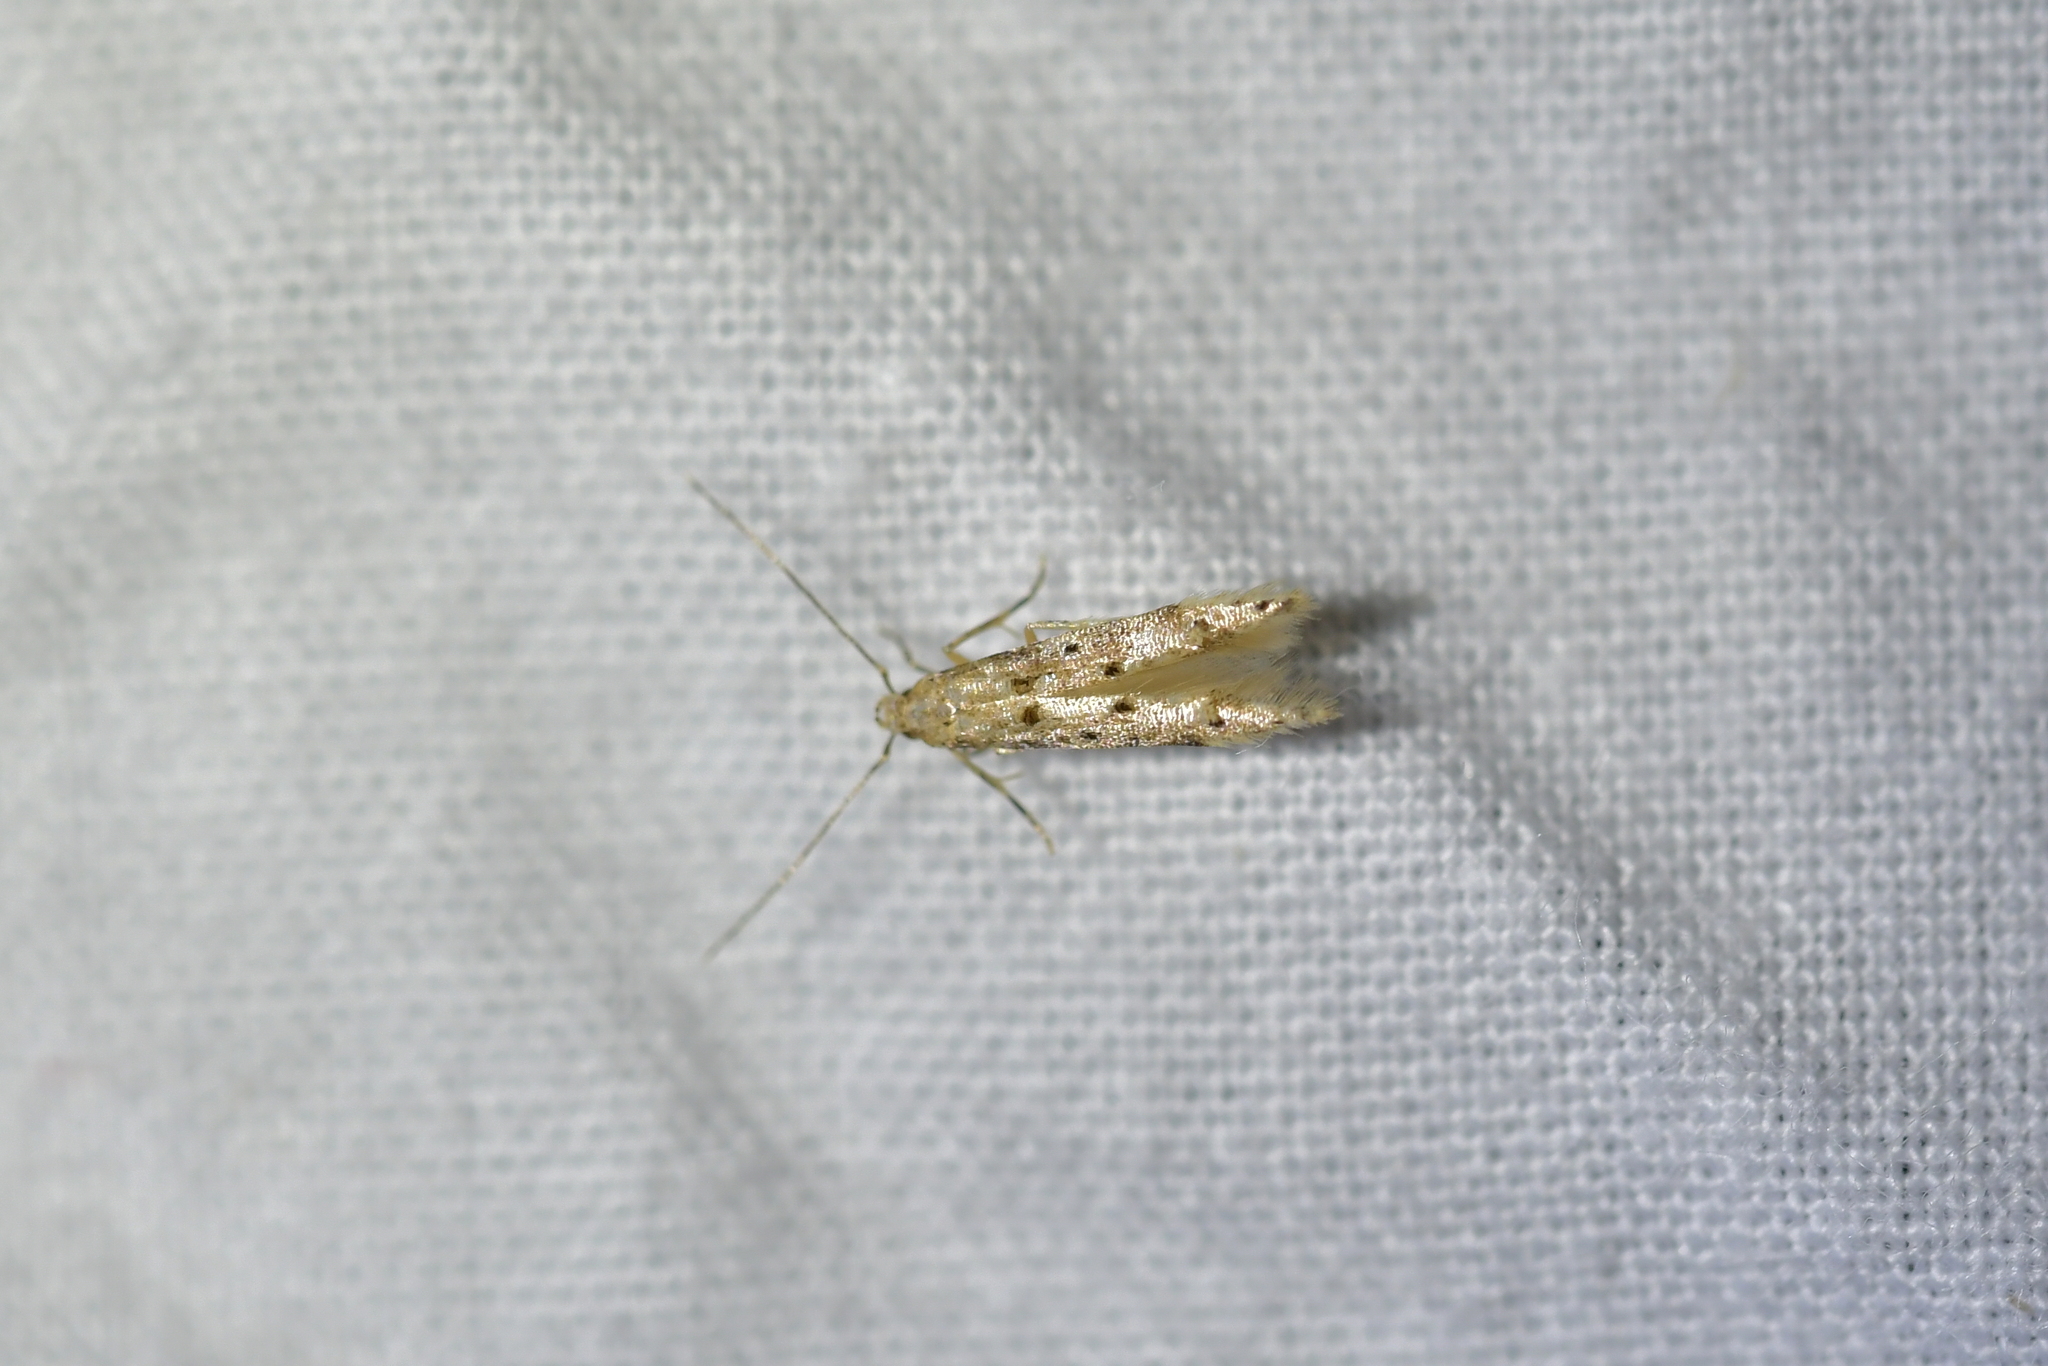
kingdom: Animalia
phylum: Arthropoda
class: Insecta
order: Lepidoptera
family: Elachistidae
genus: Microcolona
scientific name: Microcolona limodes
